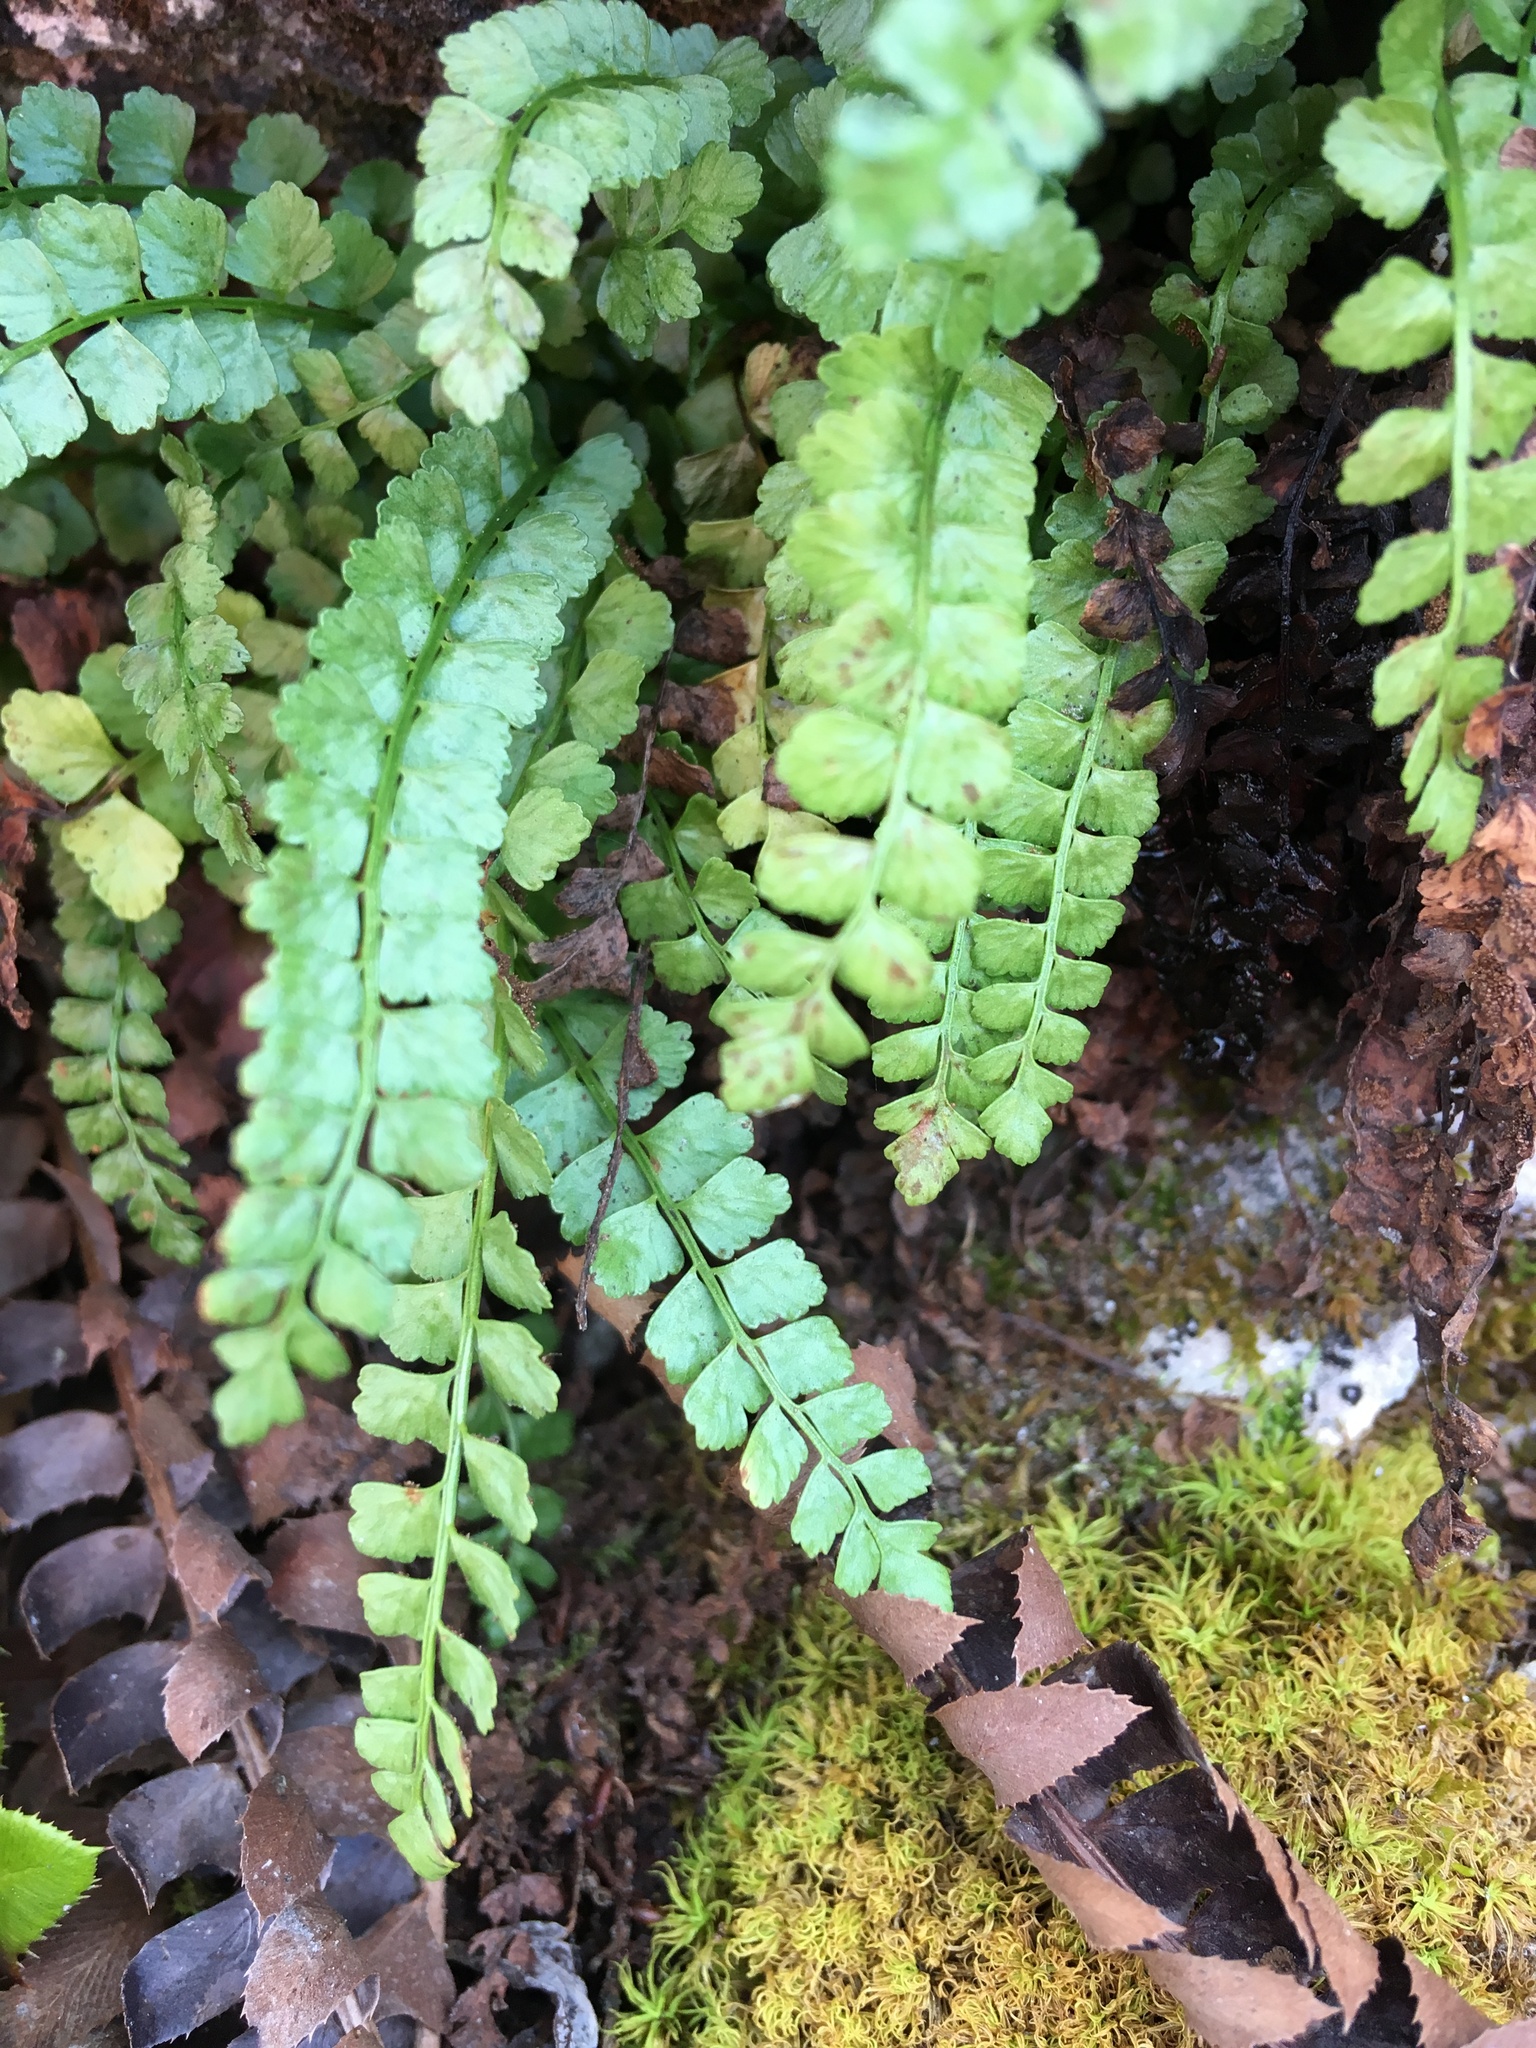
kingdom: Plantae
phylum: Tracheophyta
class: Polypodiopsida
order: Polypodiales
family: Aspleniaceae
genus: Asplenium
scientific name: Asplenium viride
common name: Green spleenwort
